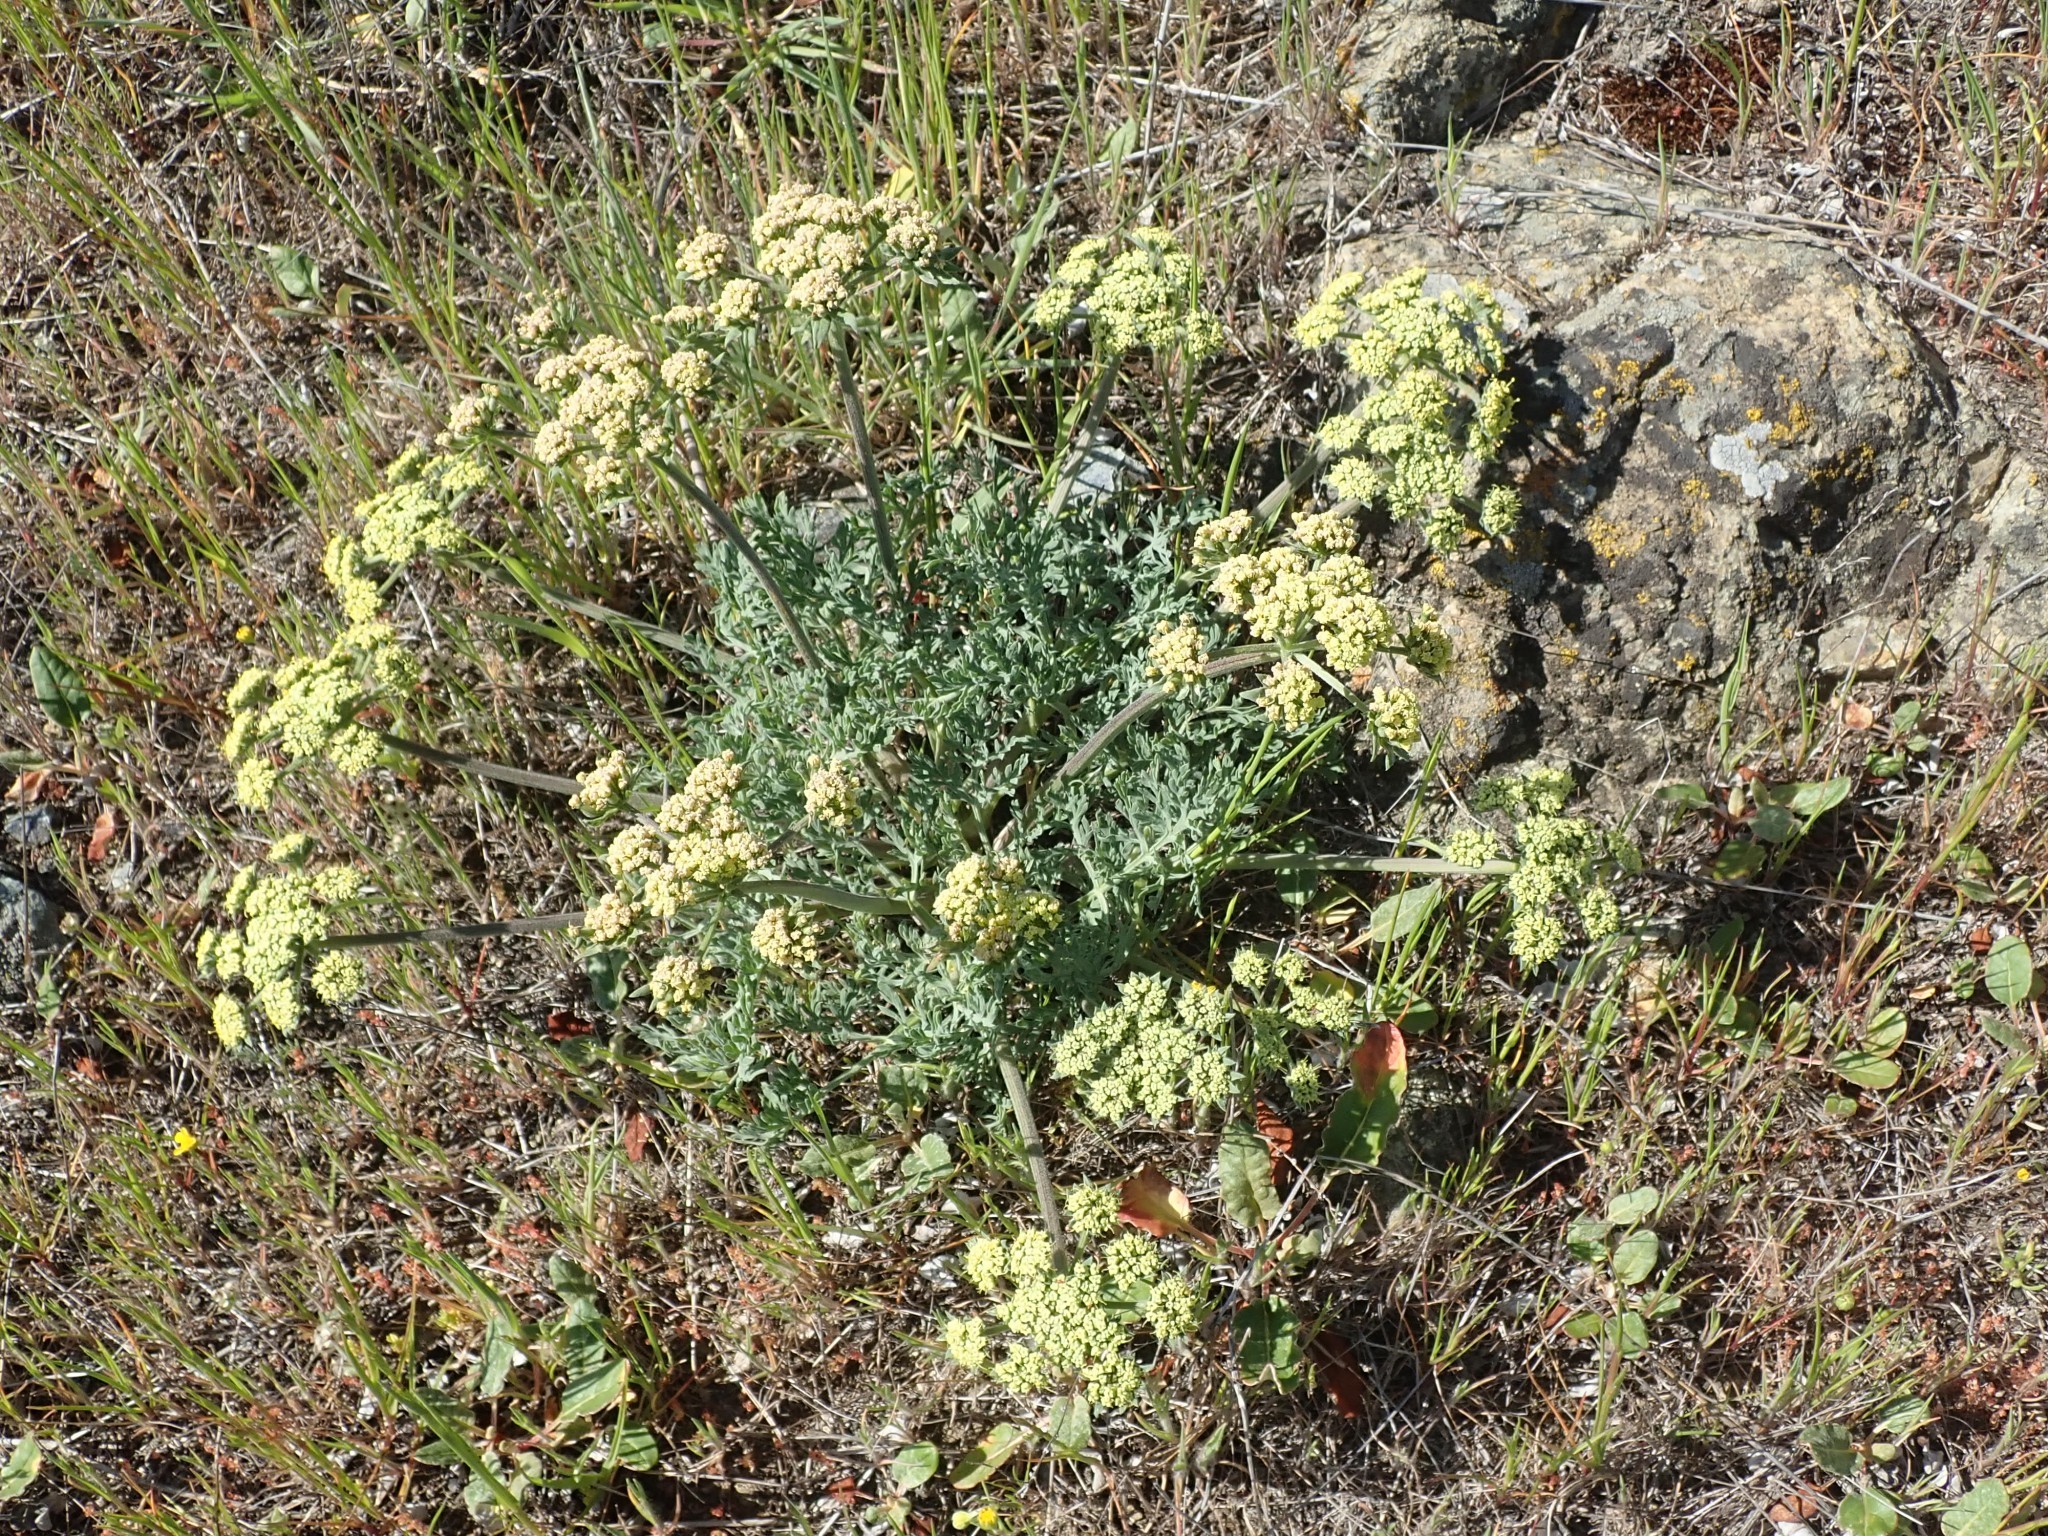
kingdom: Plantae
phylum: Tracheophyta
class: Magnoliopsida
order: Apiales
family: Apiaceae
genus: Lomatium
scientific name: Lomatium macrocarpum
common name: Big-seed biscuitroot
